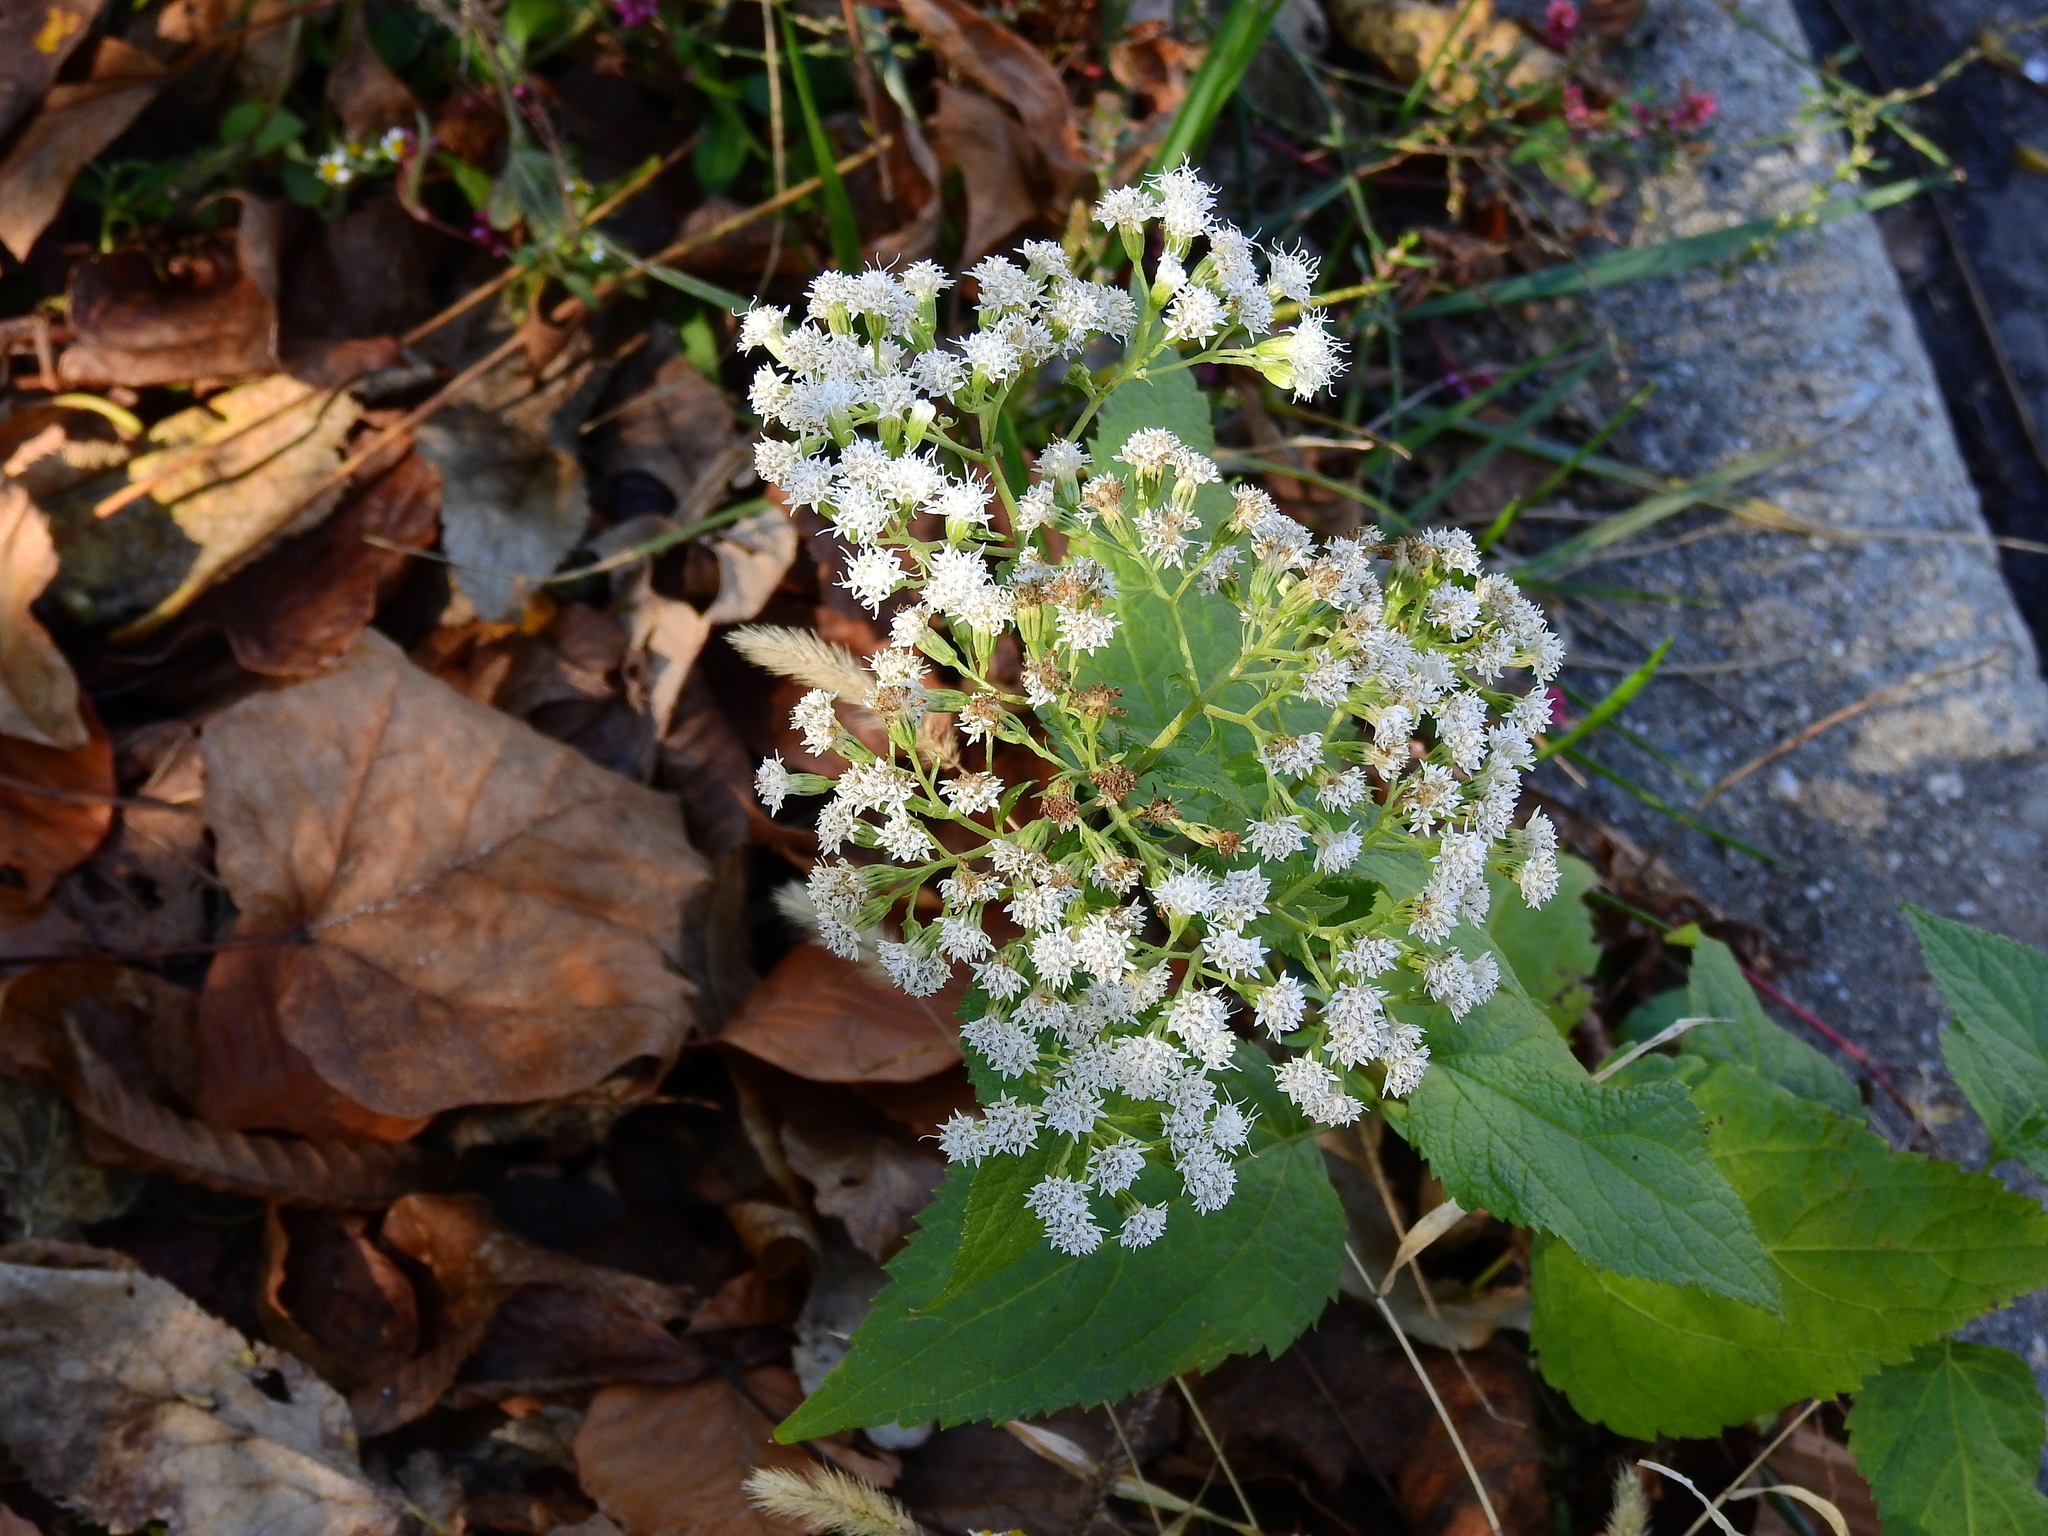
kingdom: Plantae
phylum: Tracheophyta
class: Magnoliopsida
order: Asterales
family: Asteraceae
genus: Ageratina
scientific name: Ageratina altissima
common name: White snakeroot
